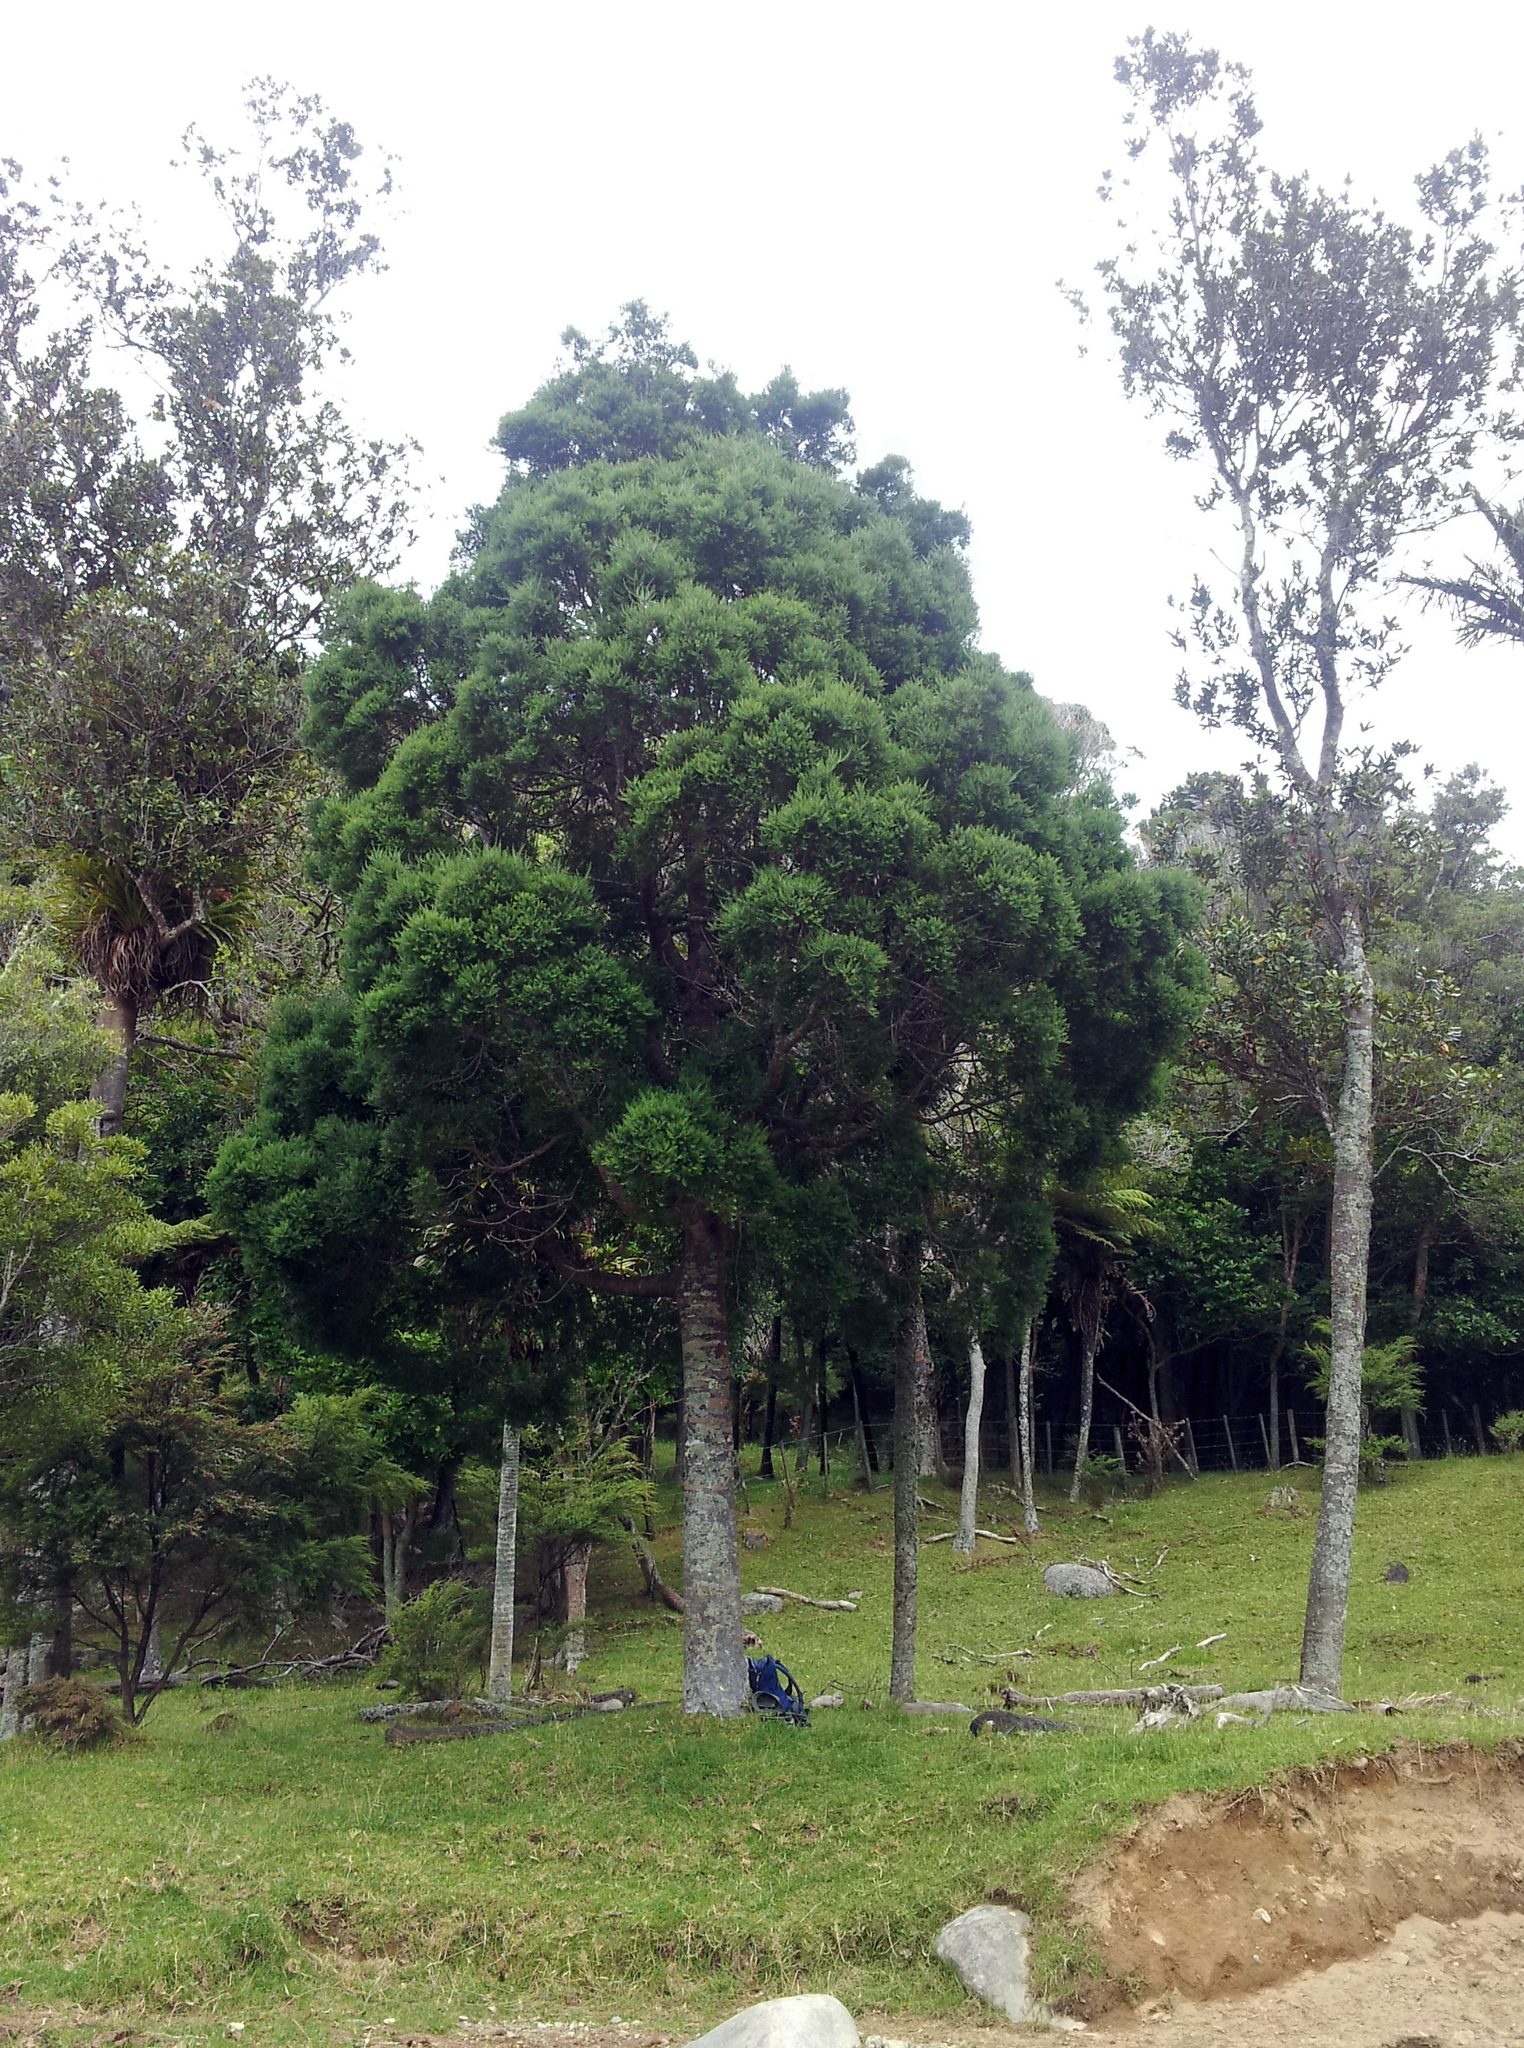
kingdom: Plantae
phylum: Tracheophyta
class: Pinopsida
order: Pinales
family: Podocarpaceae
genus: Prumnopitys
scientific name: Prumnopitys taxifolia
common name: Matai
